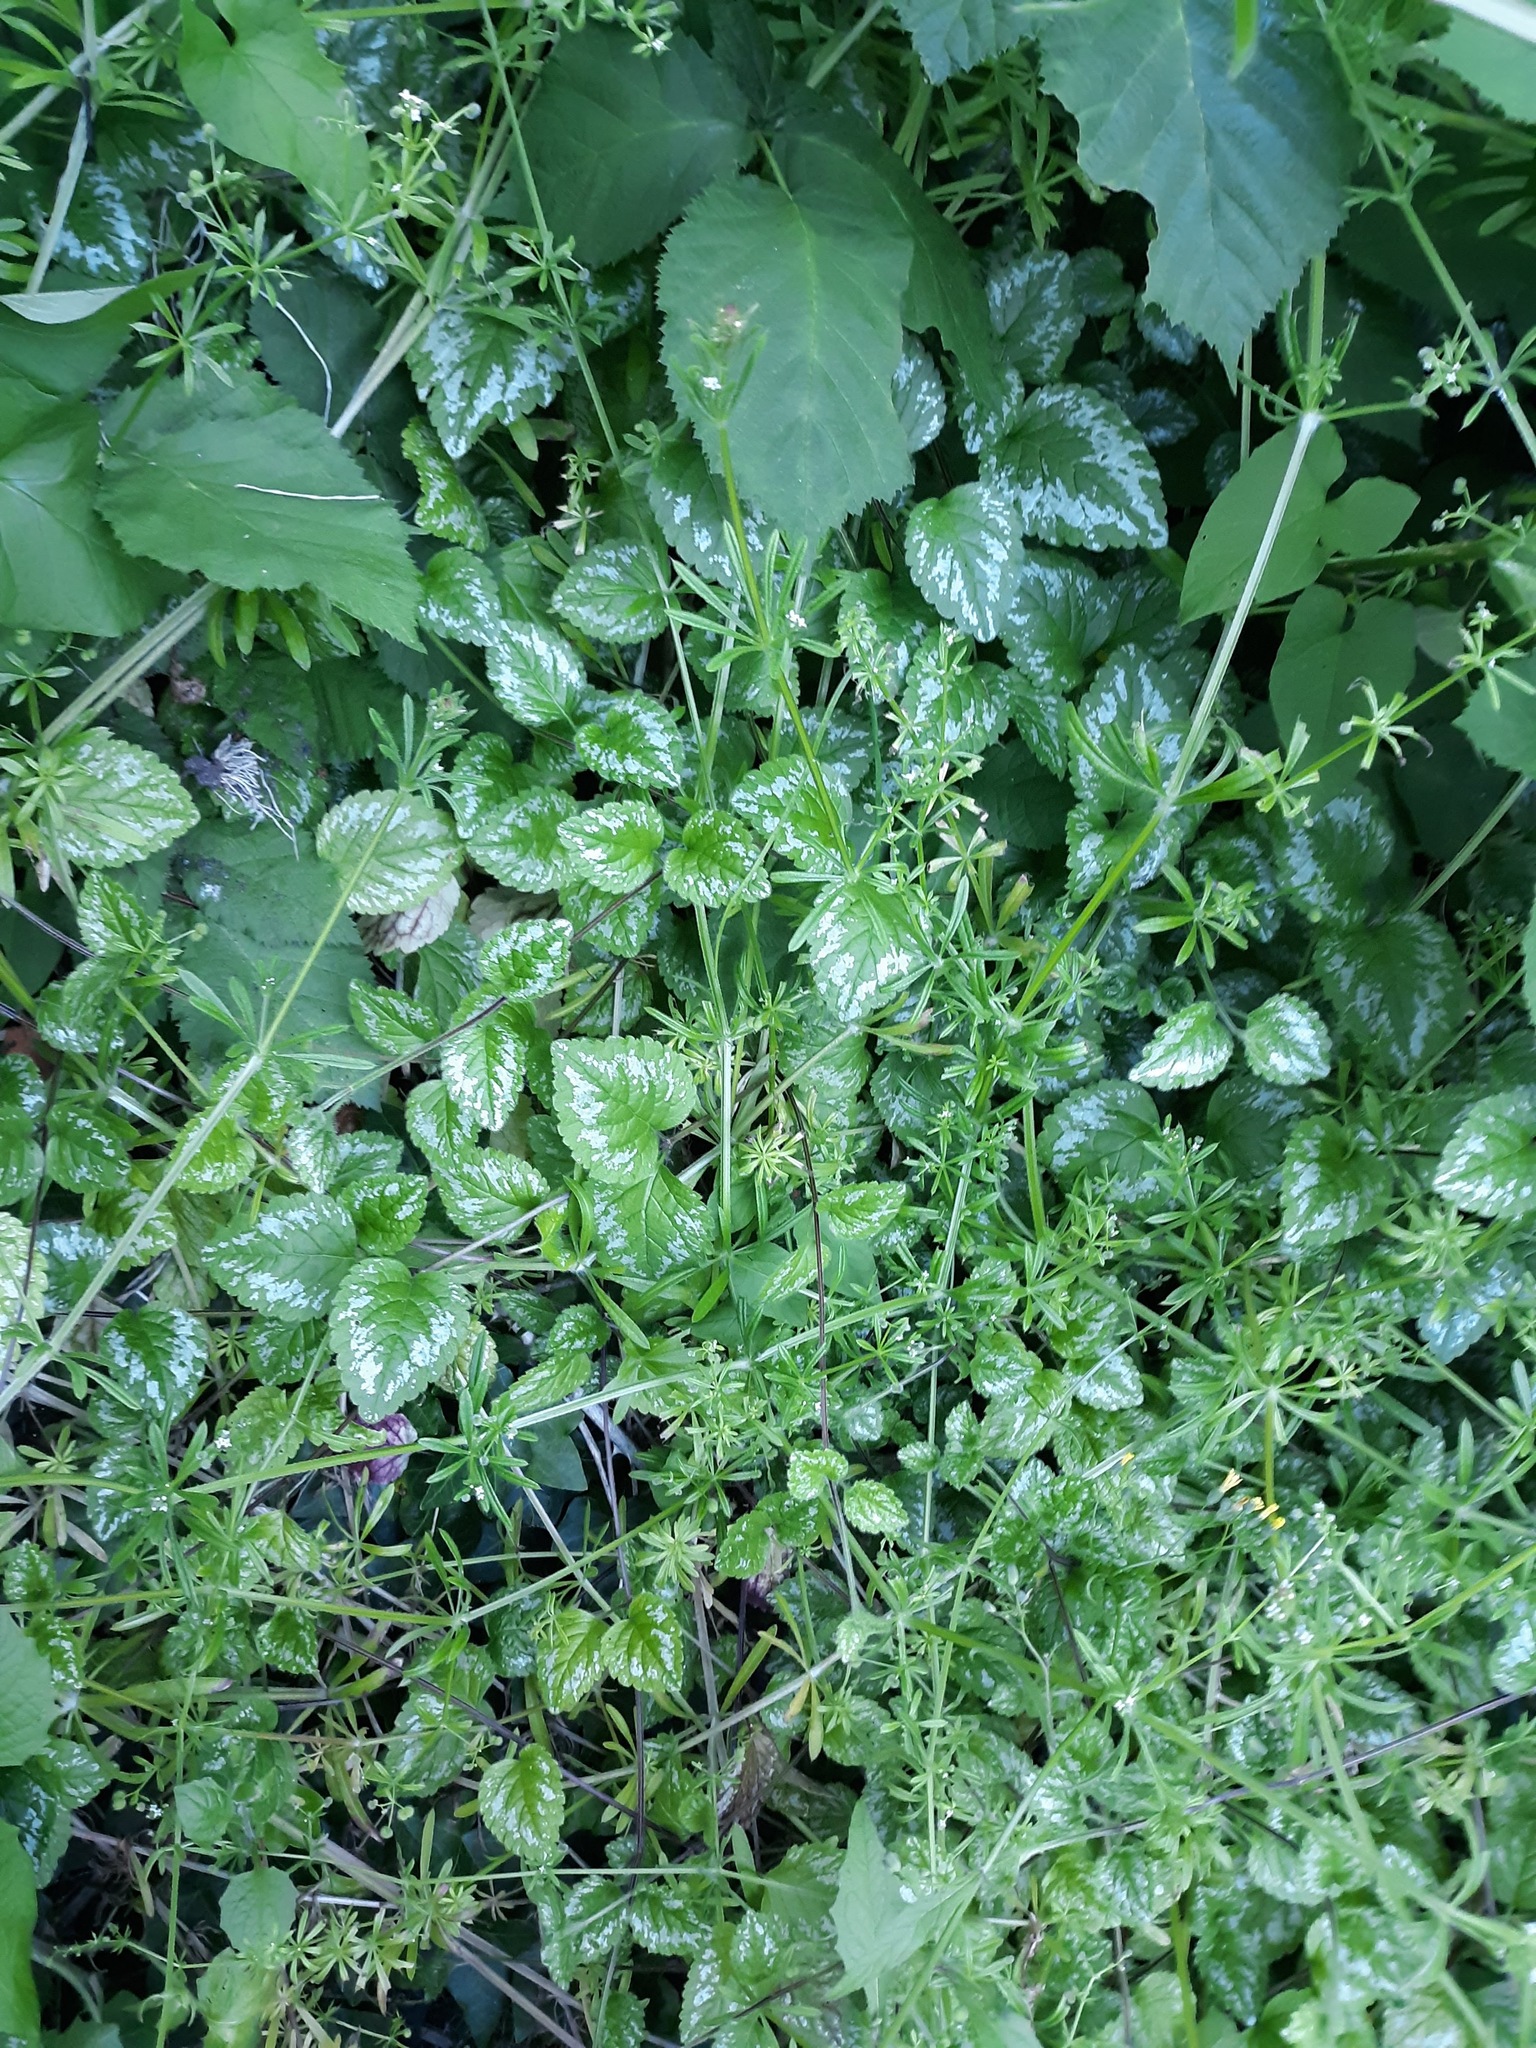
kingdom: Plantae
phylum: Tracheophyta
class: Magnoliopsida
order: Lamiales
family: Lamiaceae
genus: Lamium
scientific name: Lamium galeobdolon
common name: Yellow archangel
